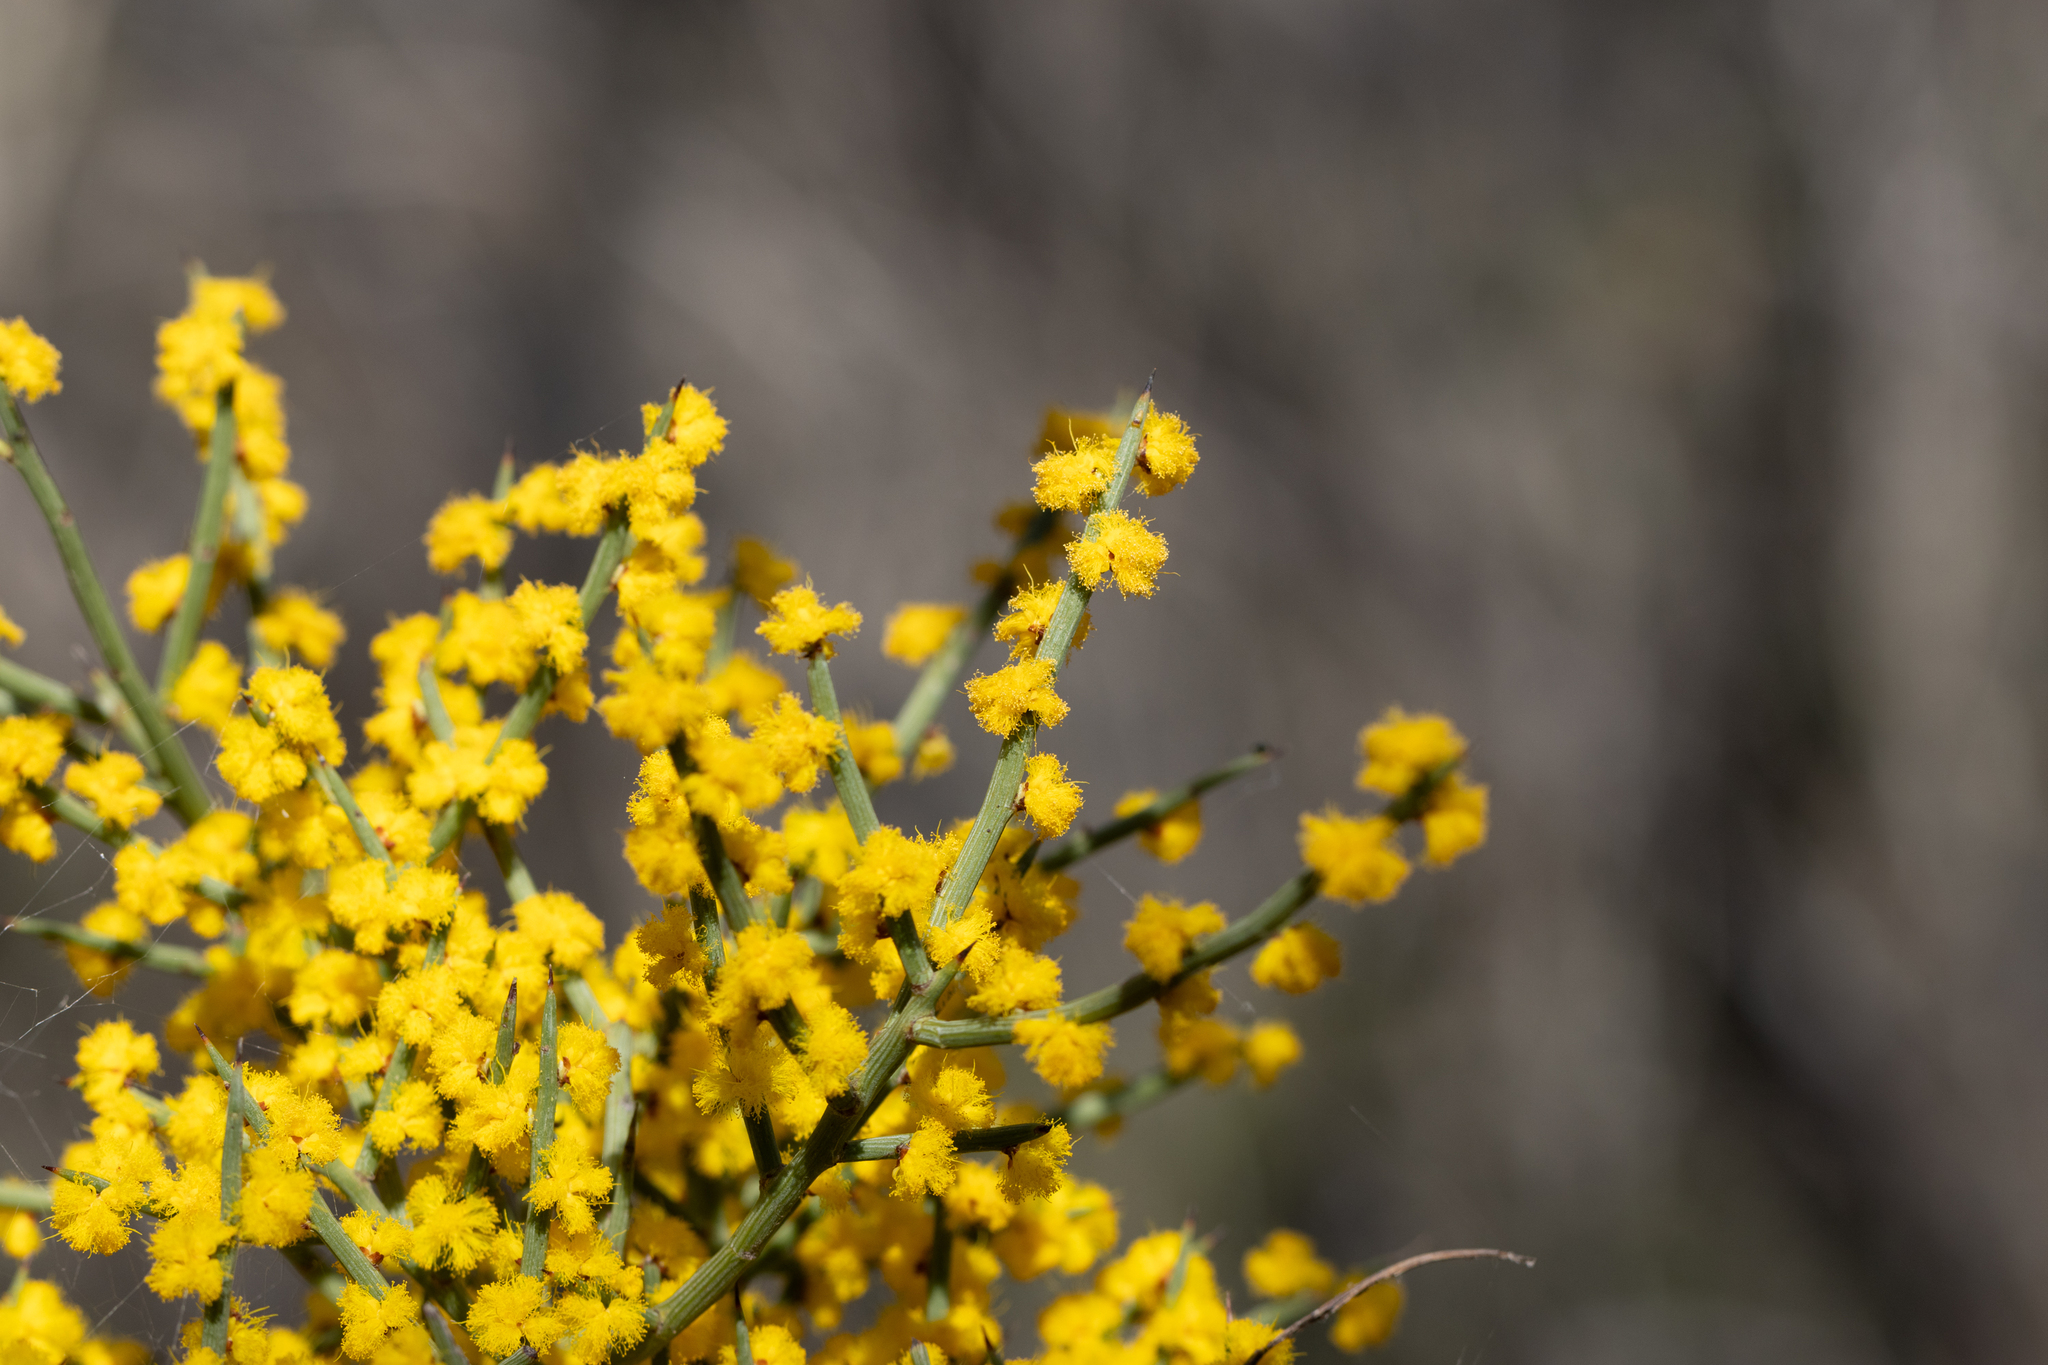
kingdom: Plantae
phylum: Tracheophyta
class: Magnoliopsida
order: Fabales
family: Fabaceae
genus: Acacia
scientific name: Acacia spinescens
